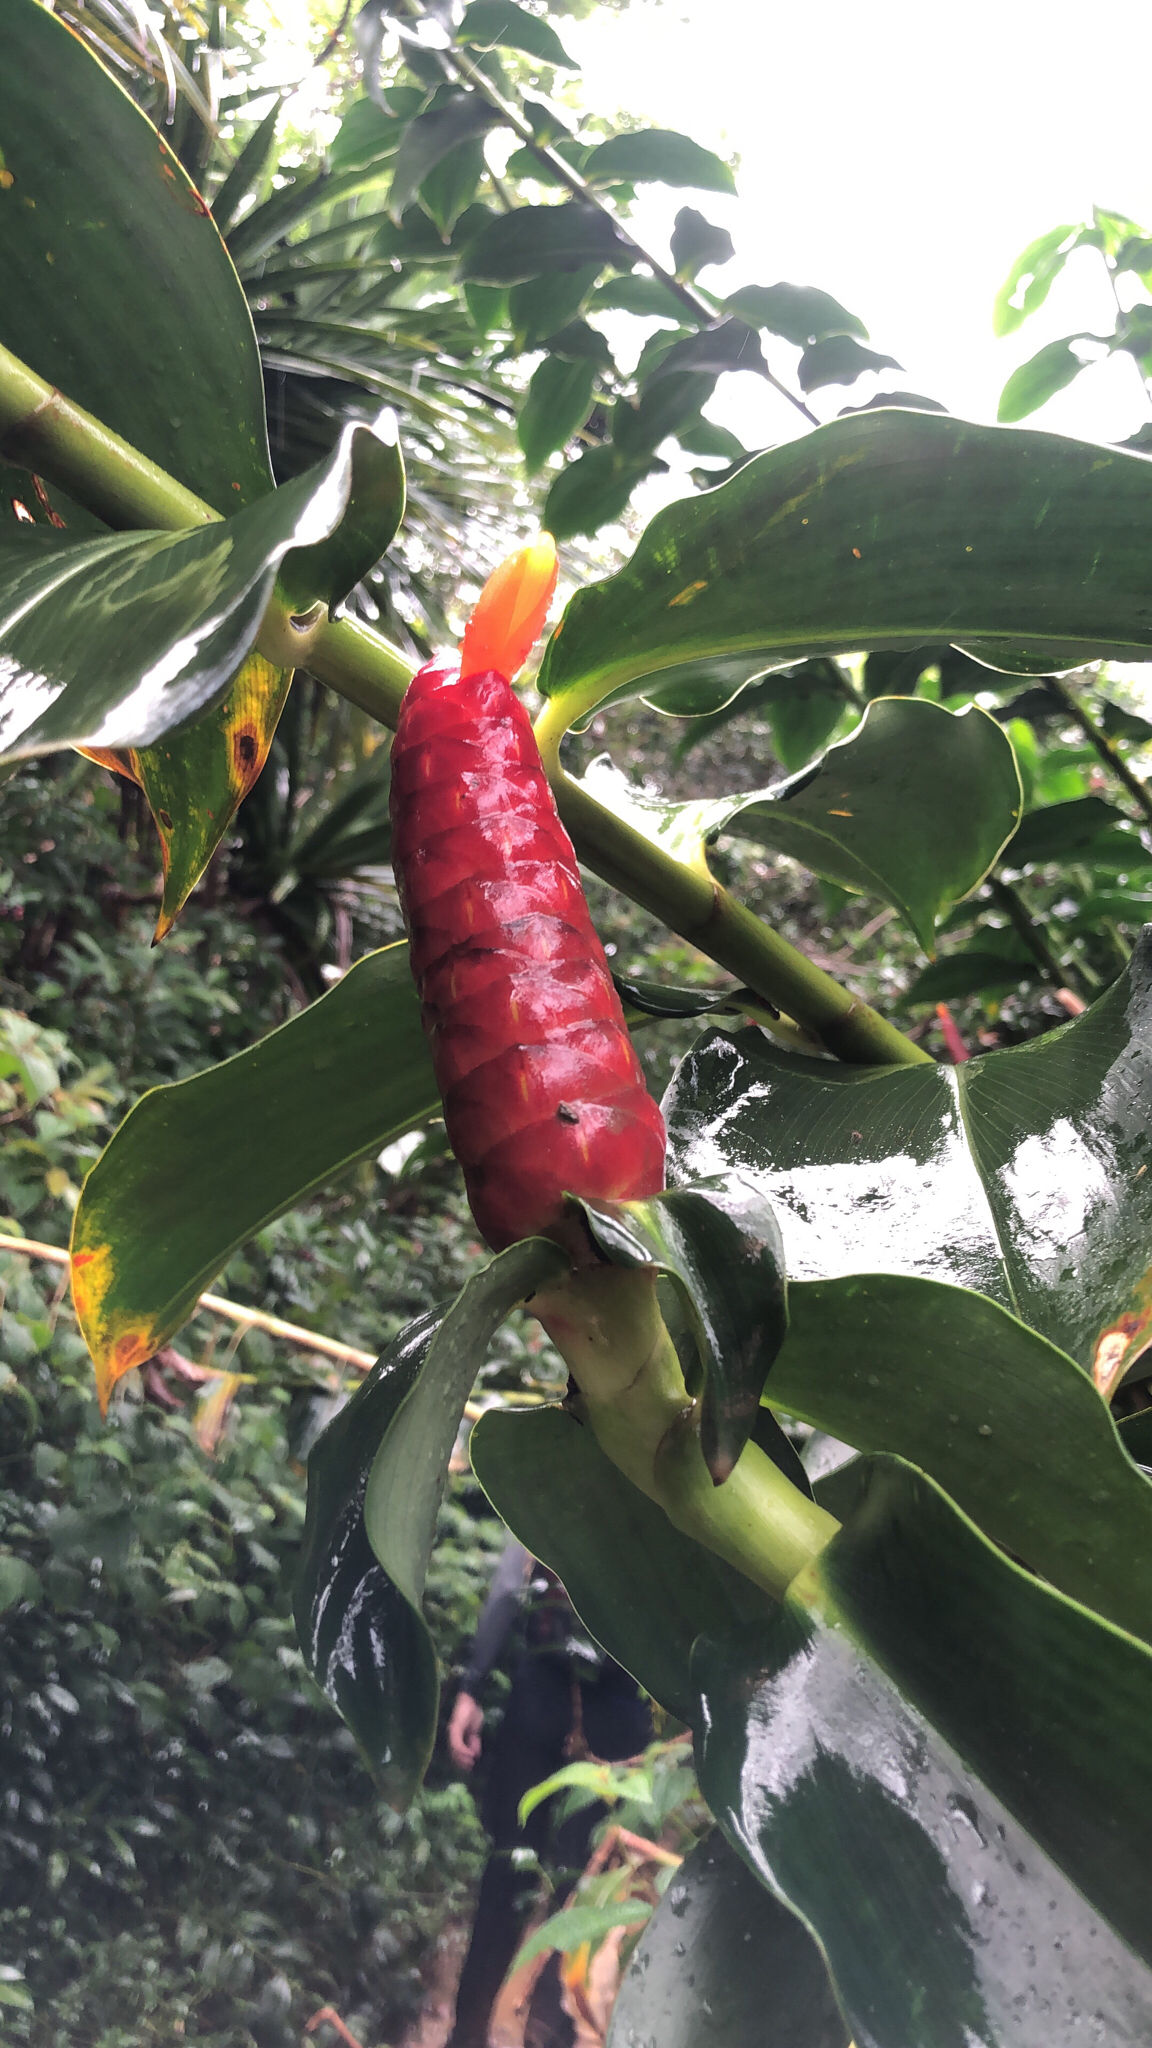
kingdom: Plantae
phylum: Tracheophyta
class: Liliopsida
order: Zingiberales
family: Costaceae
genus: Costus
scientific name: Costus woodsonii
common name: Scarlet spiral-ginger
